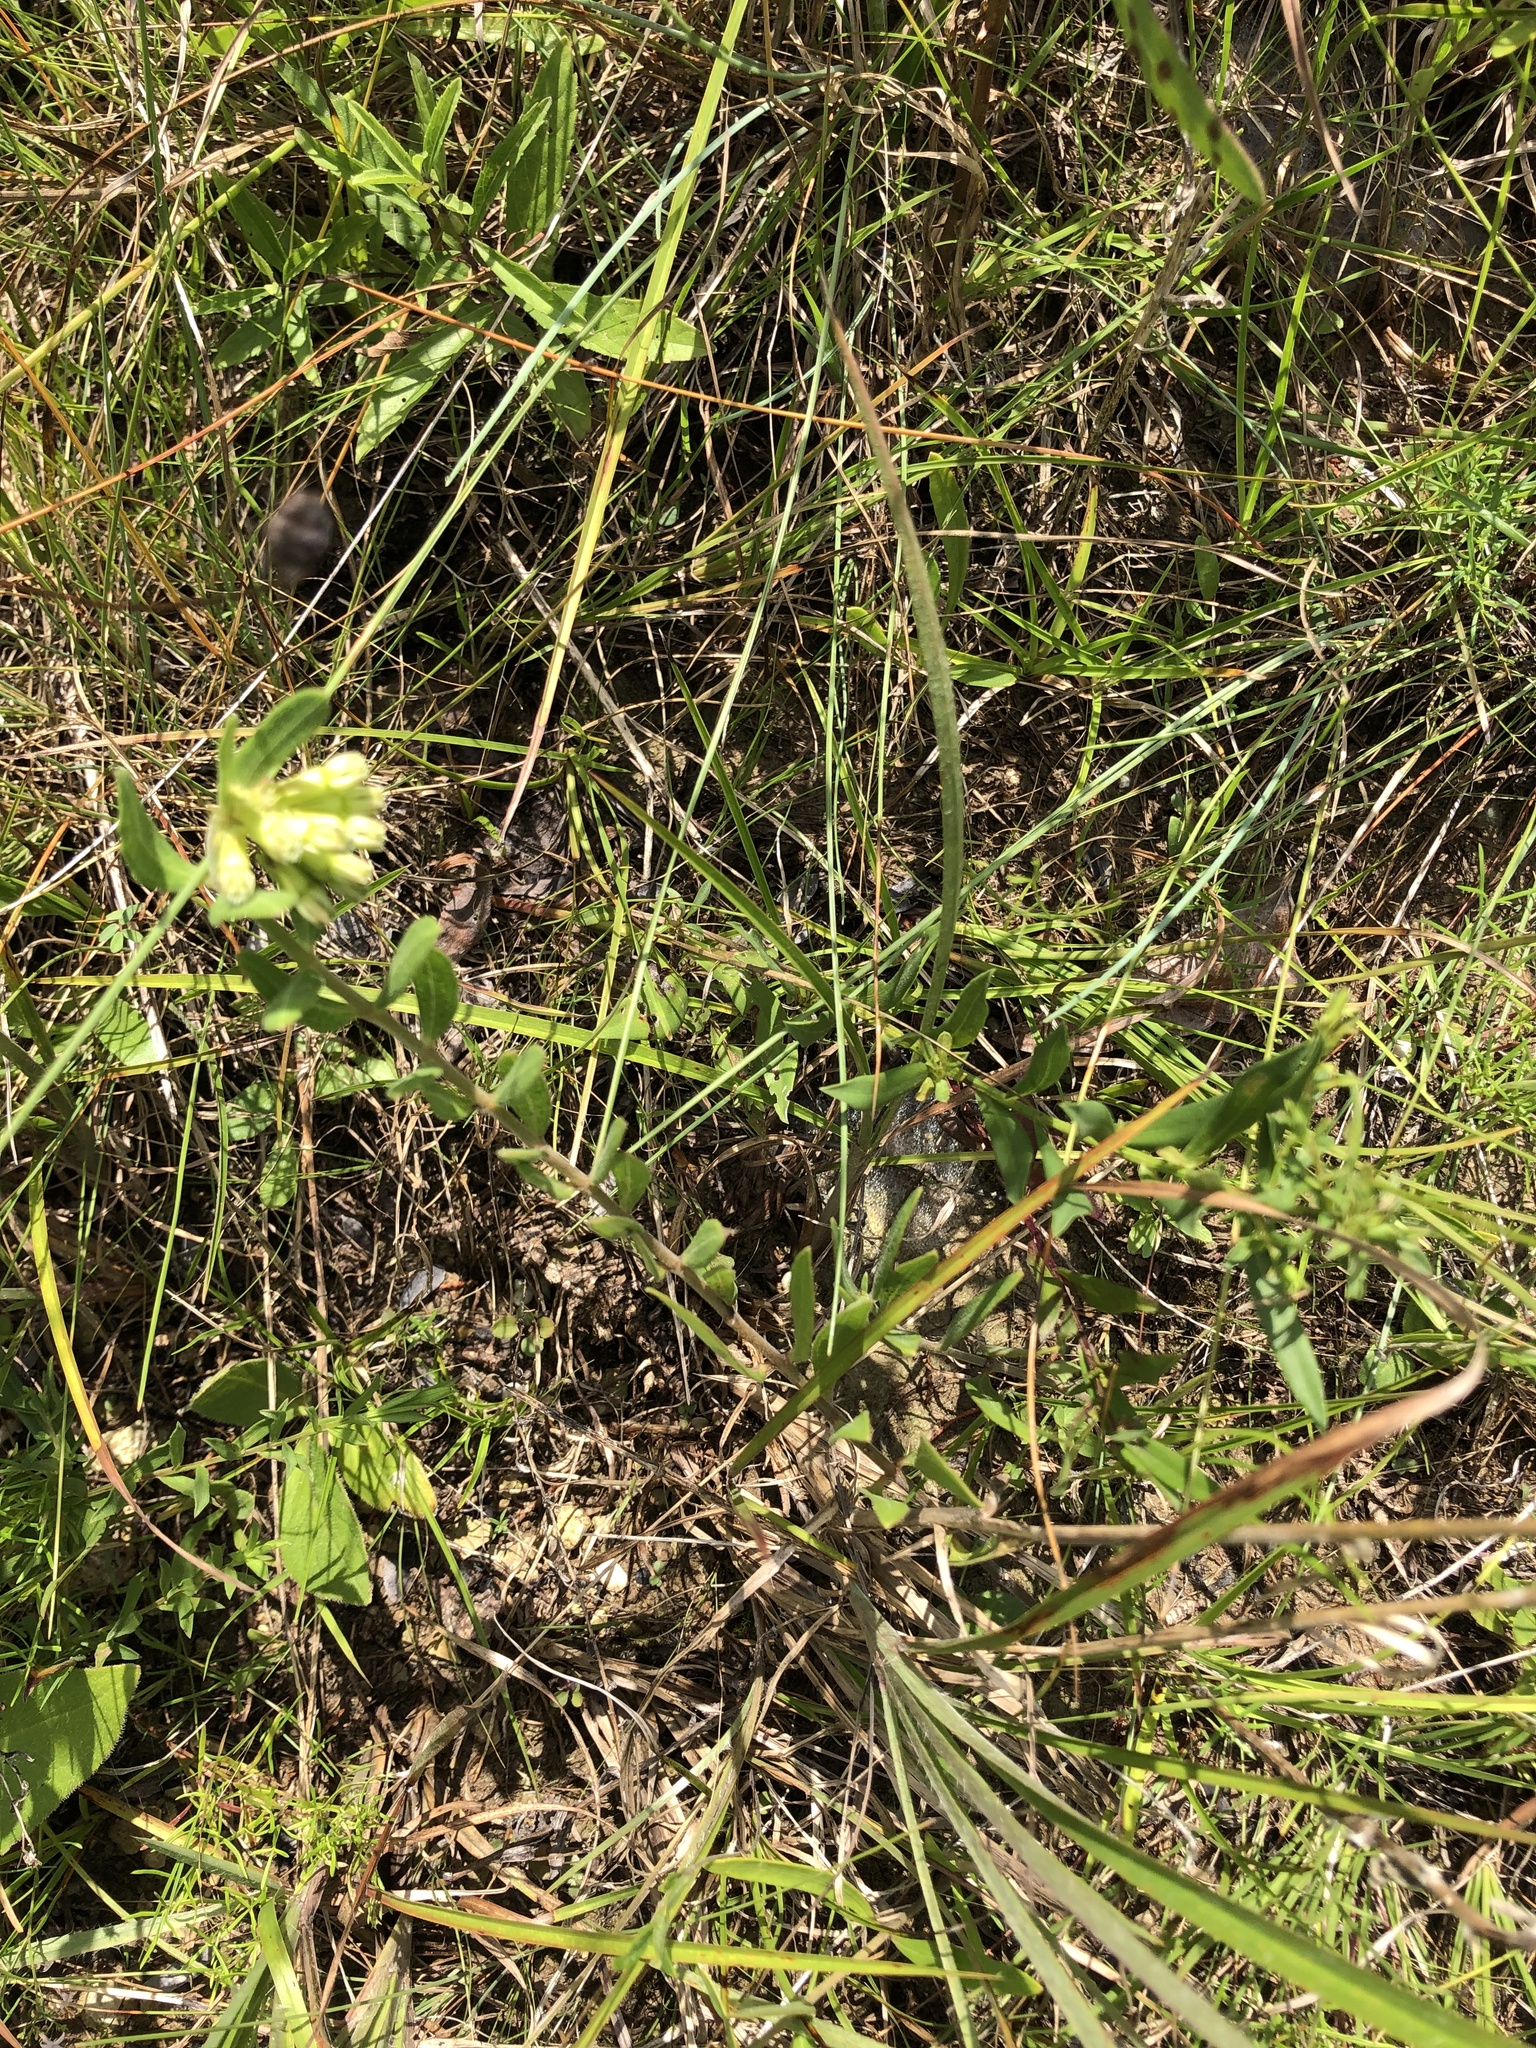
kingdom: Plantae
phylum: Tracheophyta
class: Magnoliopsida
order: Gentianales
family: Apocynaceae
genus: Asclepias
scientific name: Asclepias viridiflora
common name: Green comet milkweed
